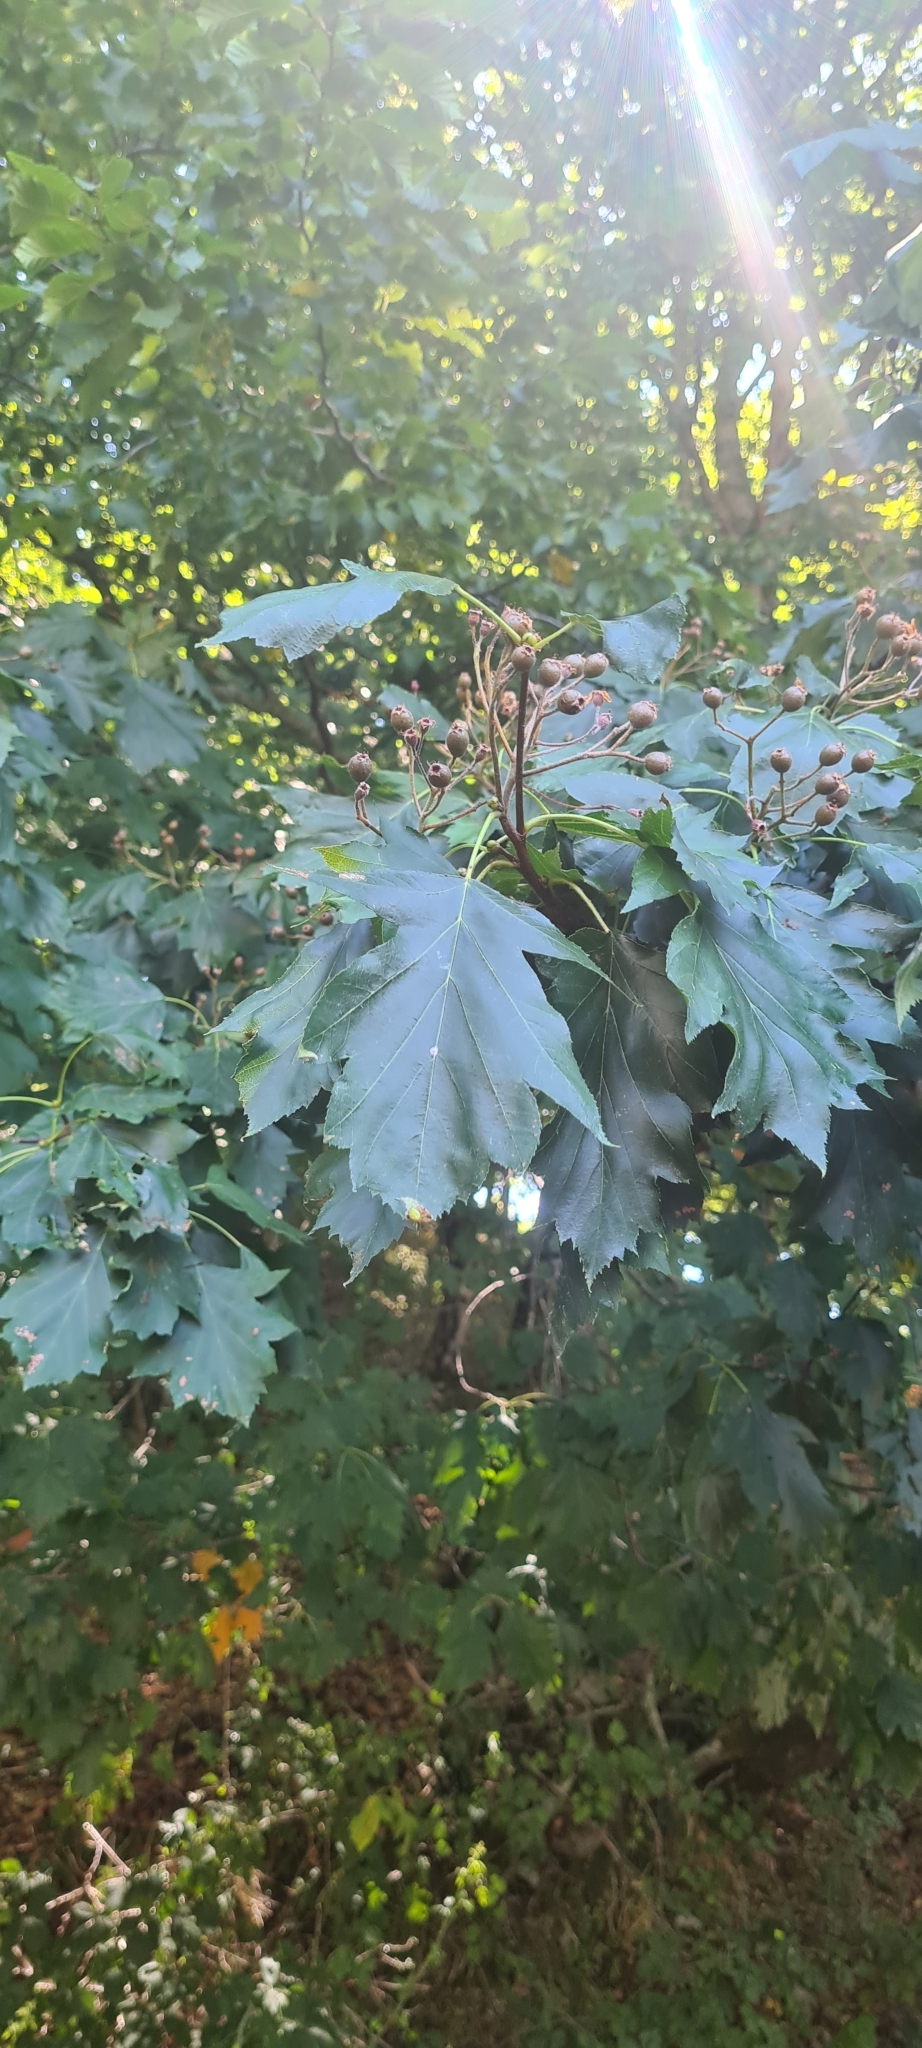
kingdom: Plantae
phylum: Tracheophyta
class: Magnoliopsida
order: Rosales
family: Rosaceae
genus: Torminalis
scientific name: Torminalis glaberrima
